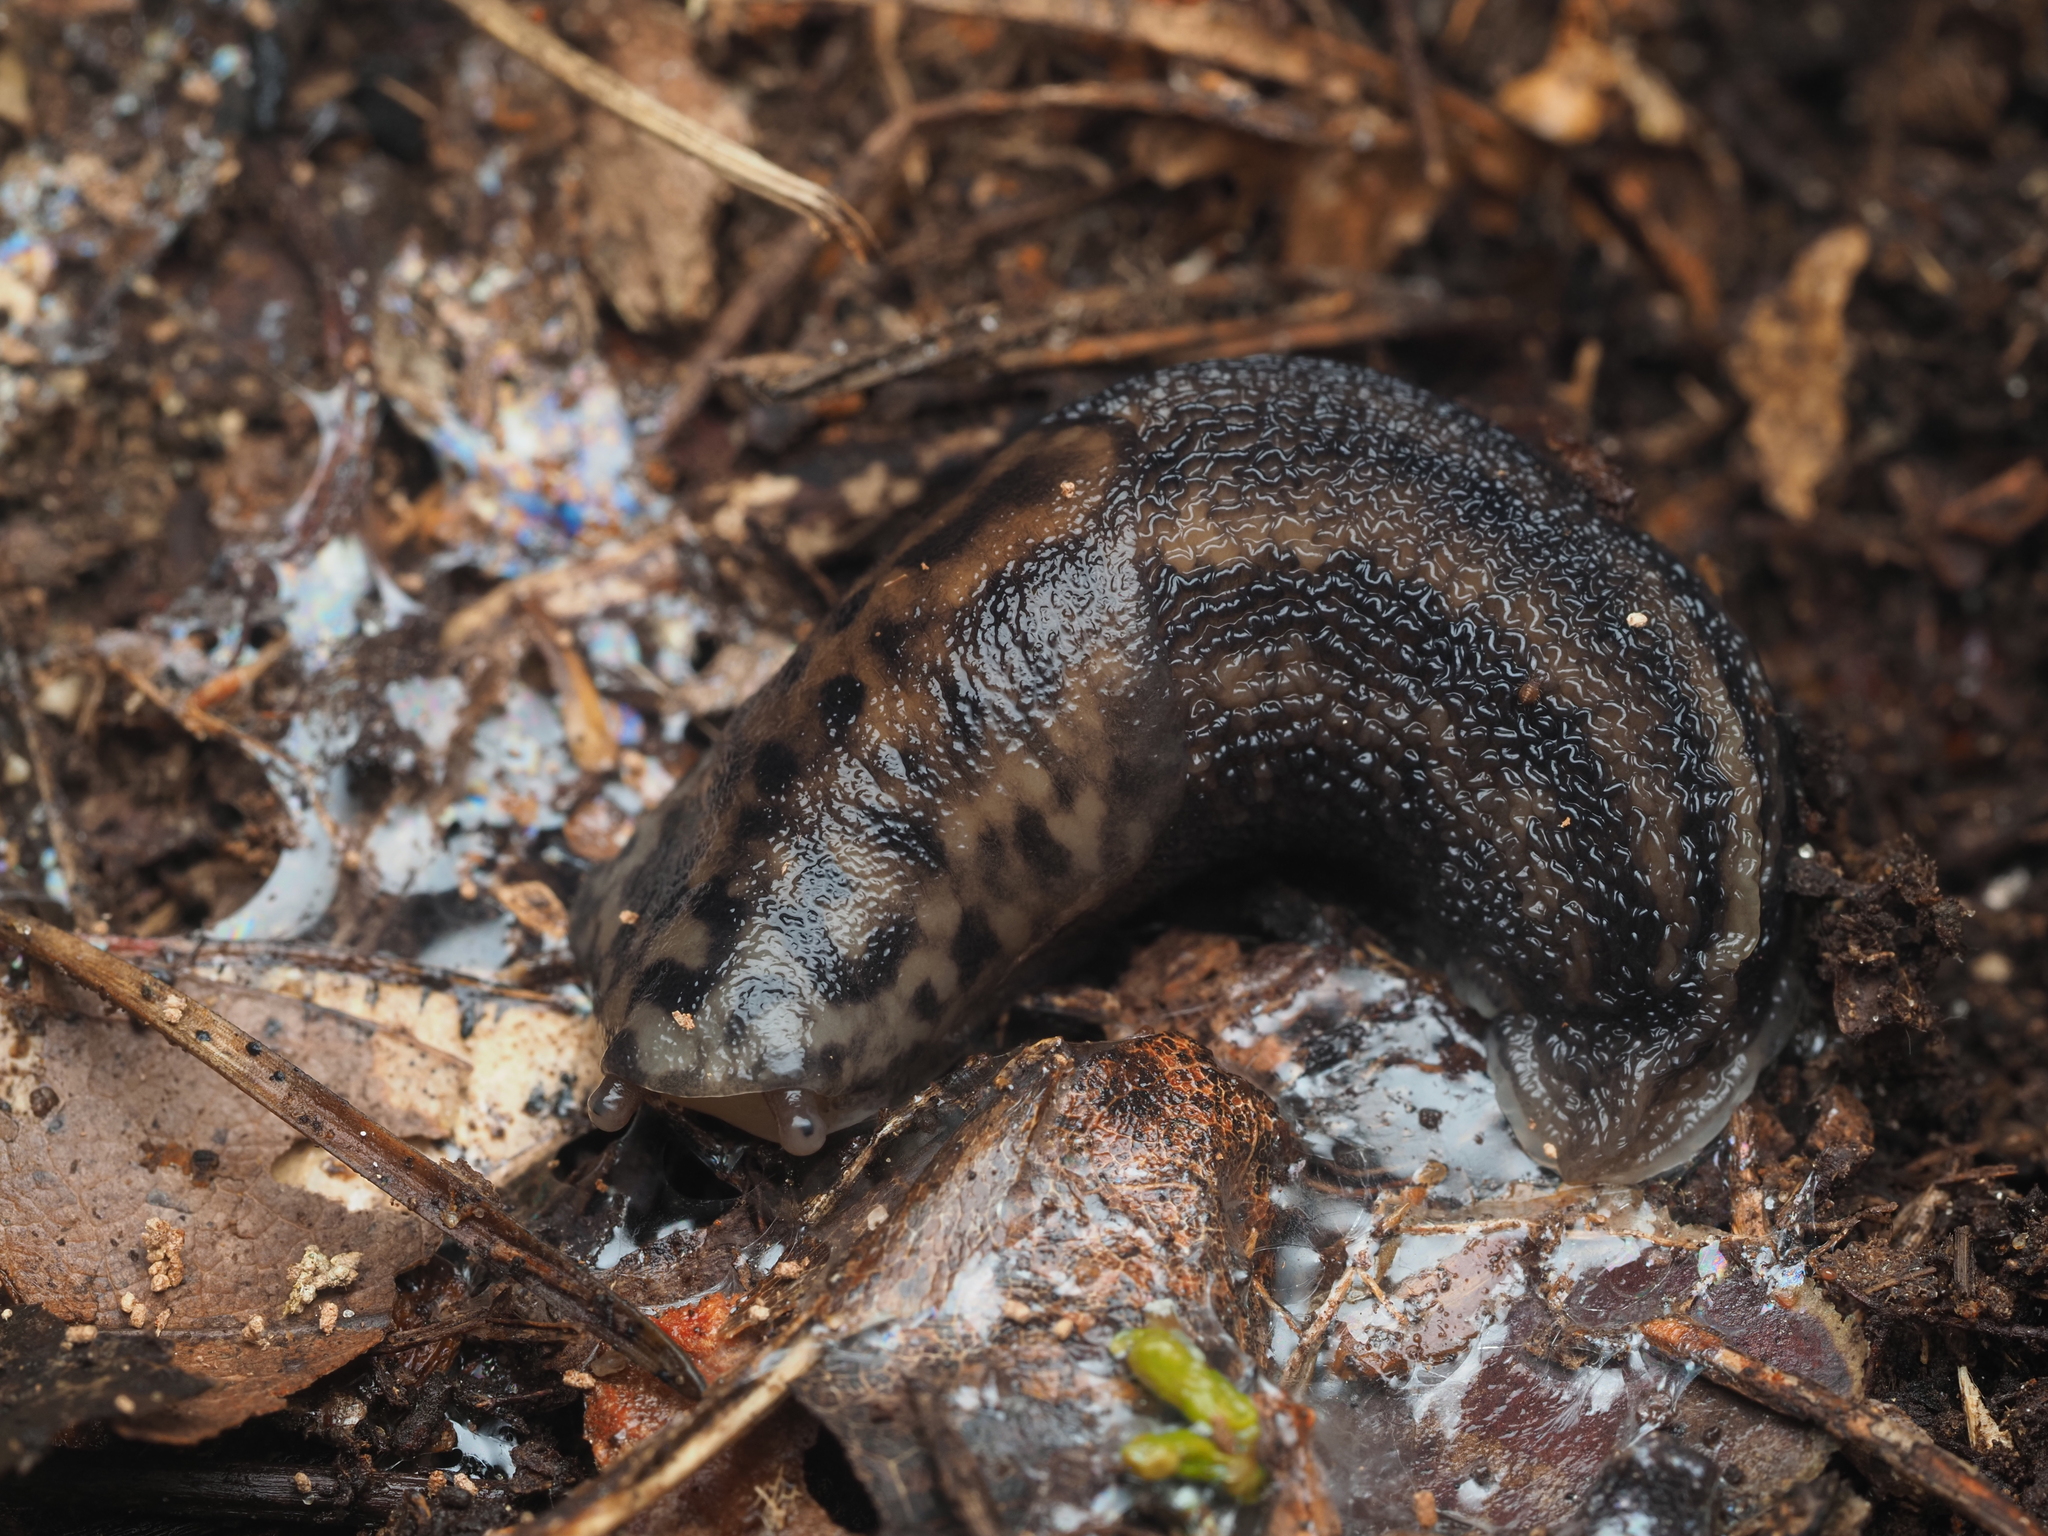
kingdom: Animalia
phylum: Mollusca
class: Gastropoda
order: Stylommatophora
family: Limacidae
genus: Limax
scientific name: Limax maximus
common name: Great grey slug
